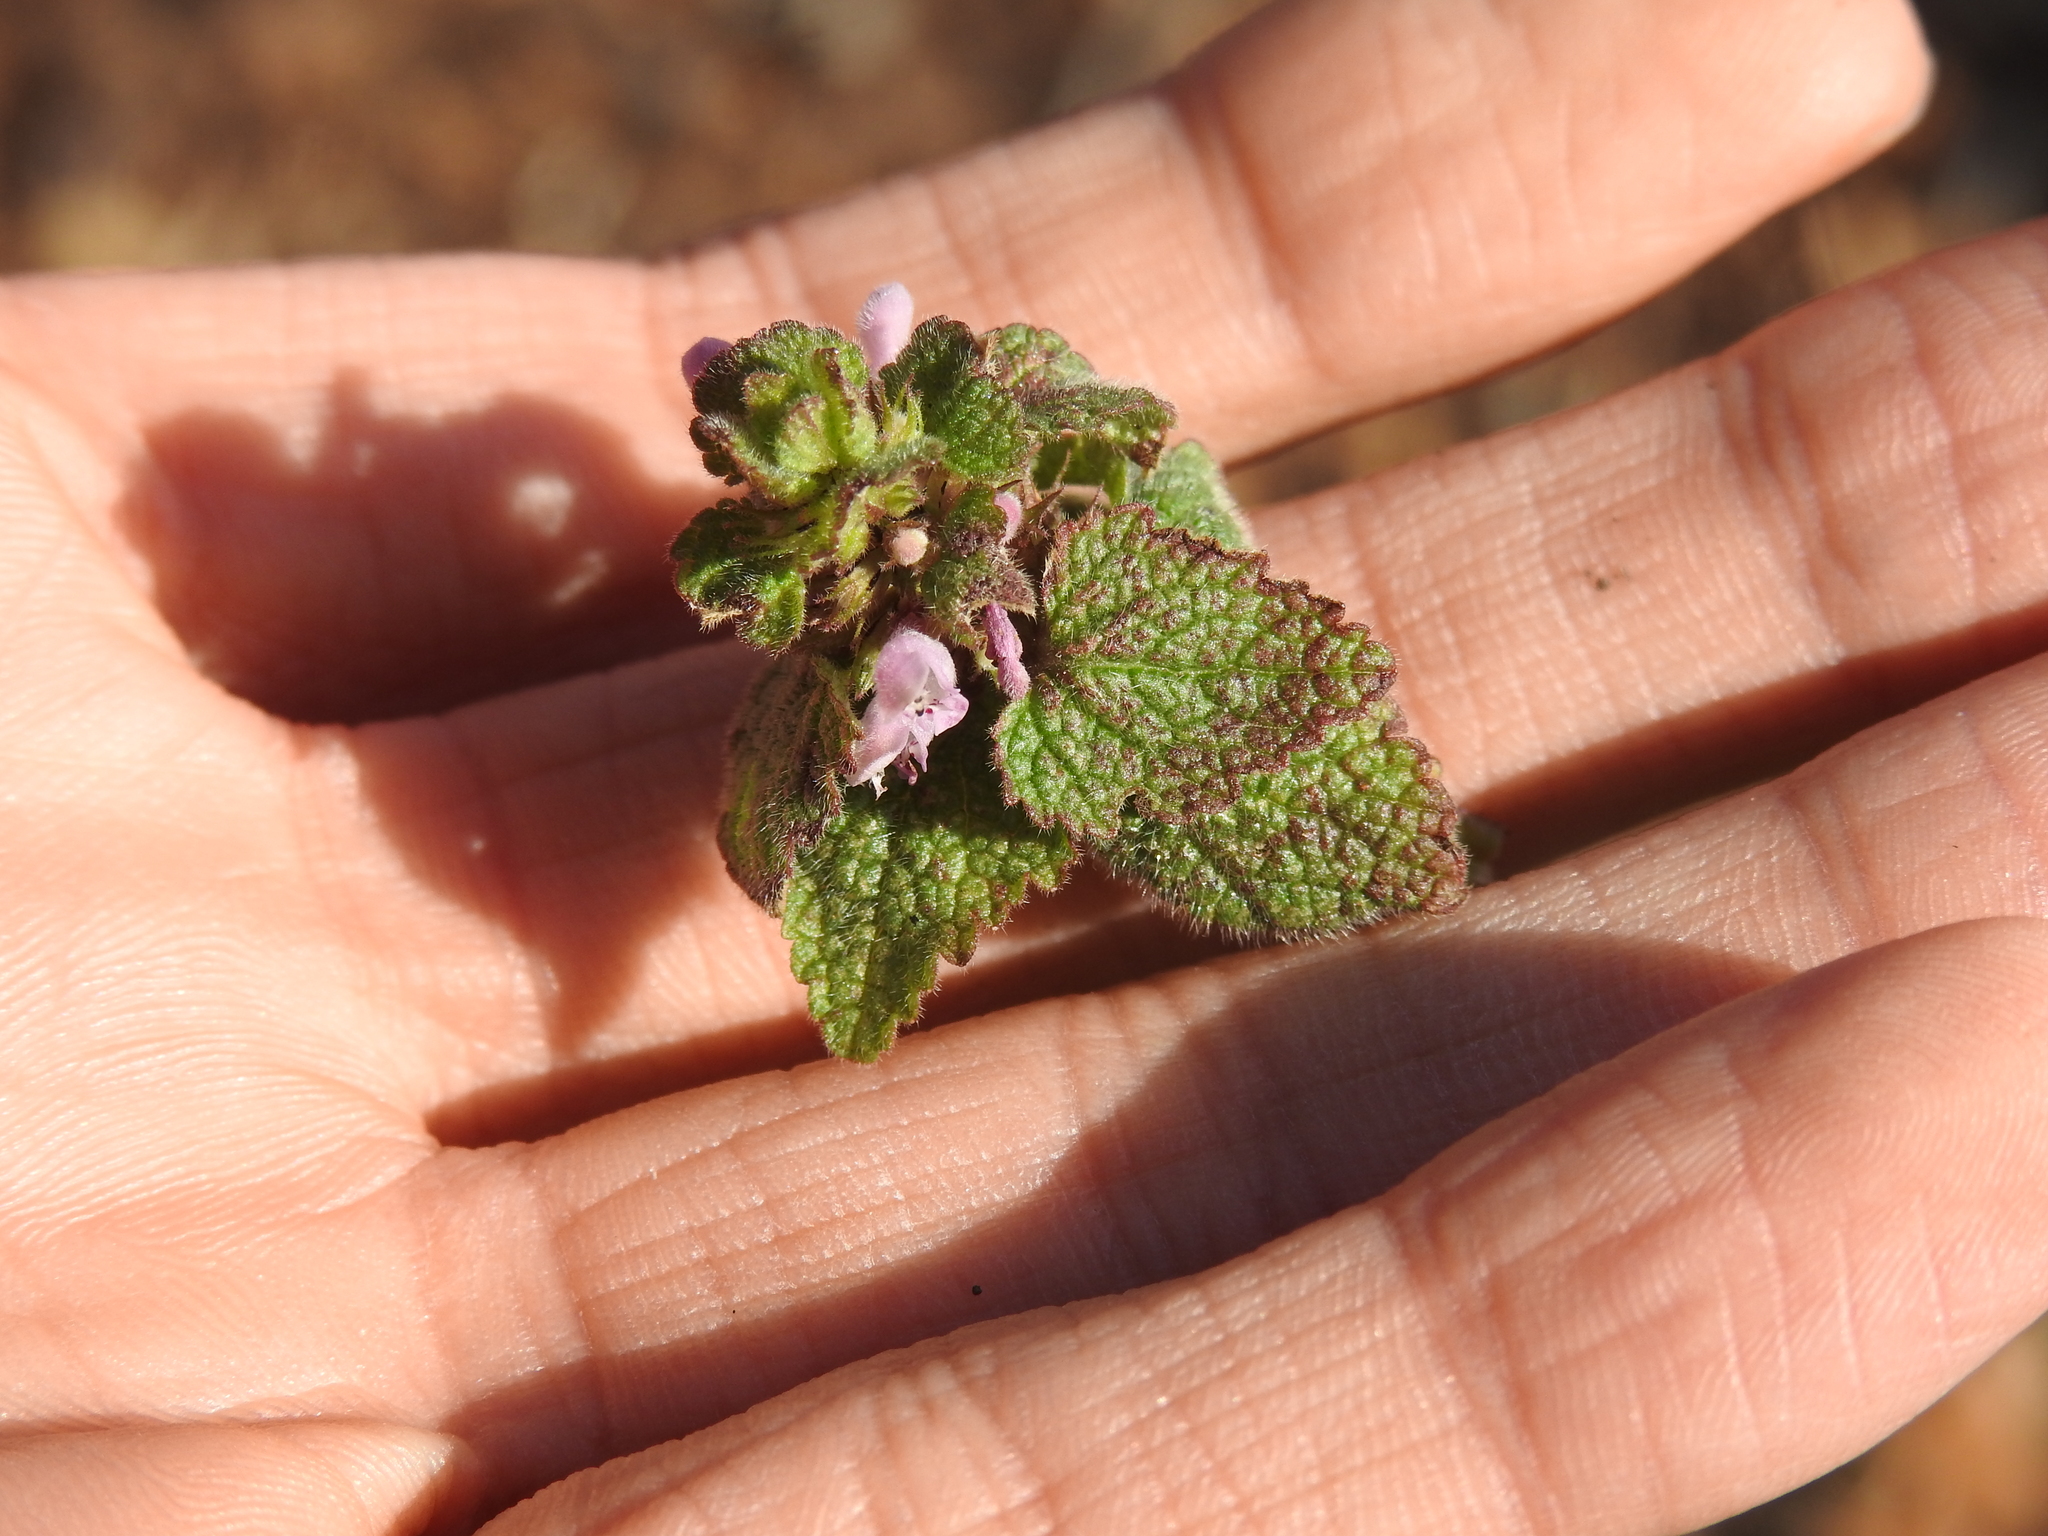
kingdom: Plantae
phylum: Tracheophyta
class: Magnoliopsida
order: Lamiales
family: Lamiaceae
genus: Lamium
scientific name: Lamium purpureum
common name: Red dead-nettle
